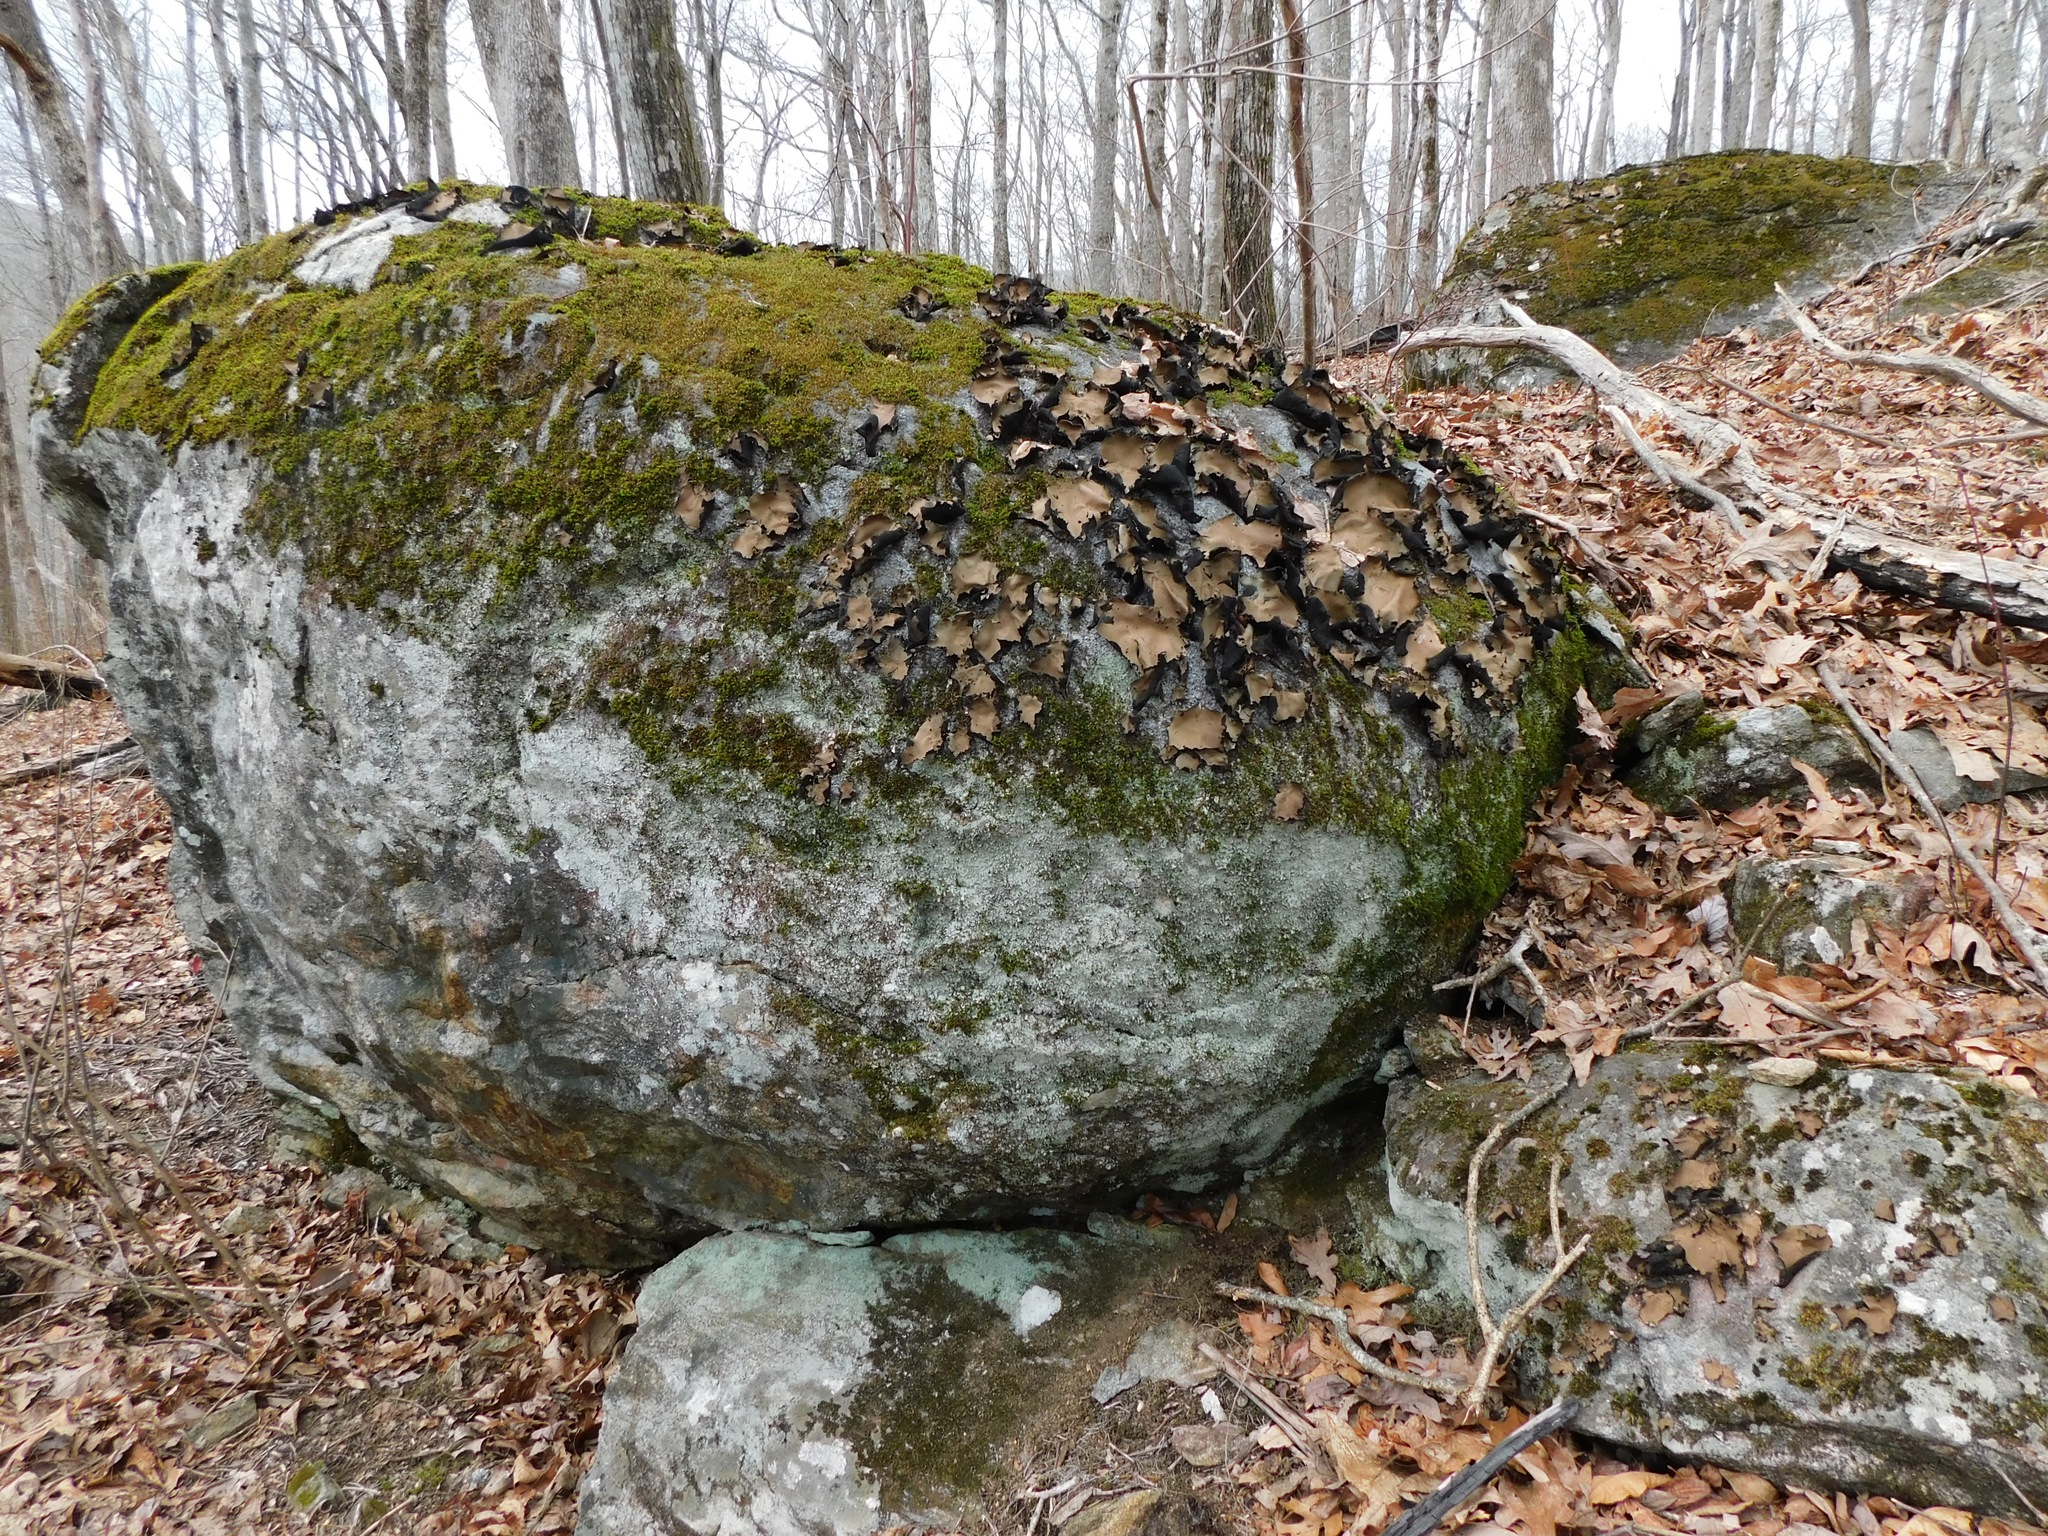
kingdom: Fungi
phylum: Ascomycota
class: Lecanoromycetes
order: Umbilicariales
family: Umbilicariaceae
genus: Umbilicaria
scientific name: Umbilicaria mammulata
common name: Smooth rock tripe
